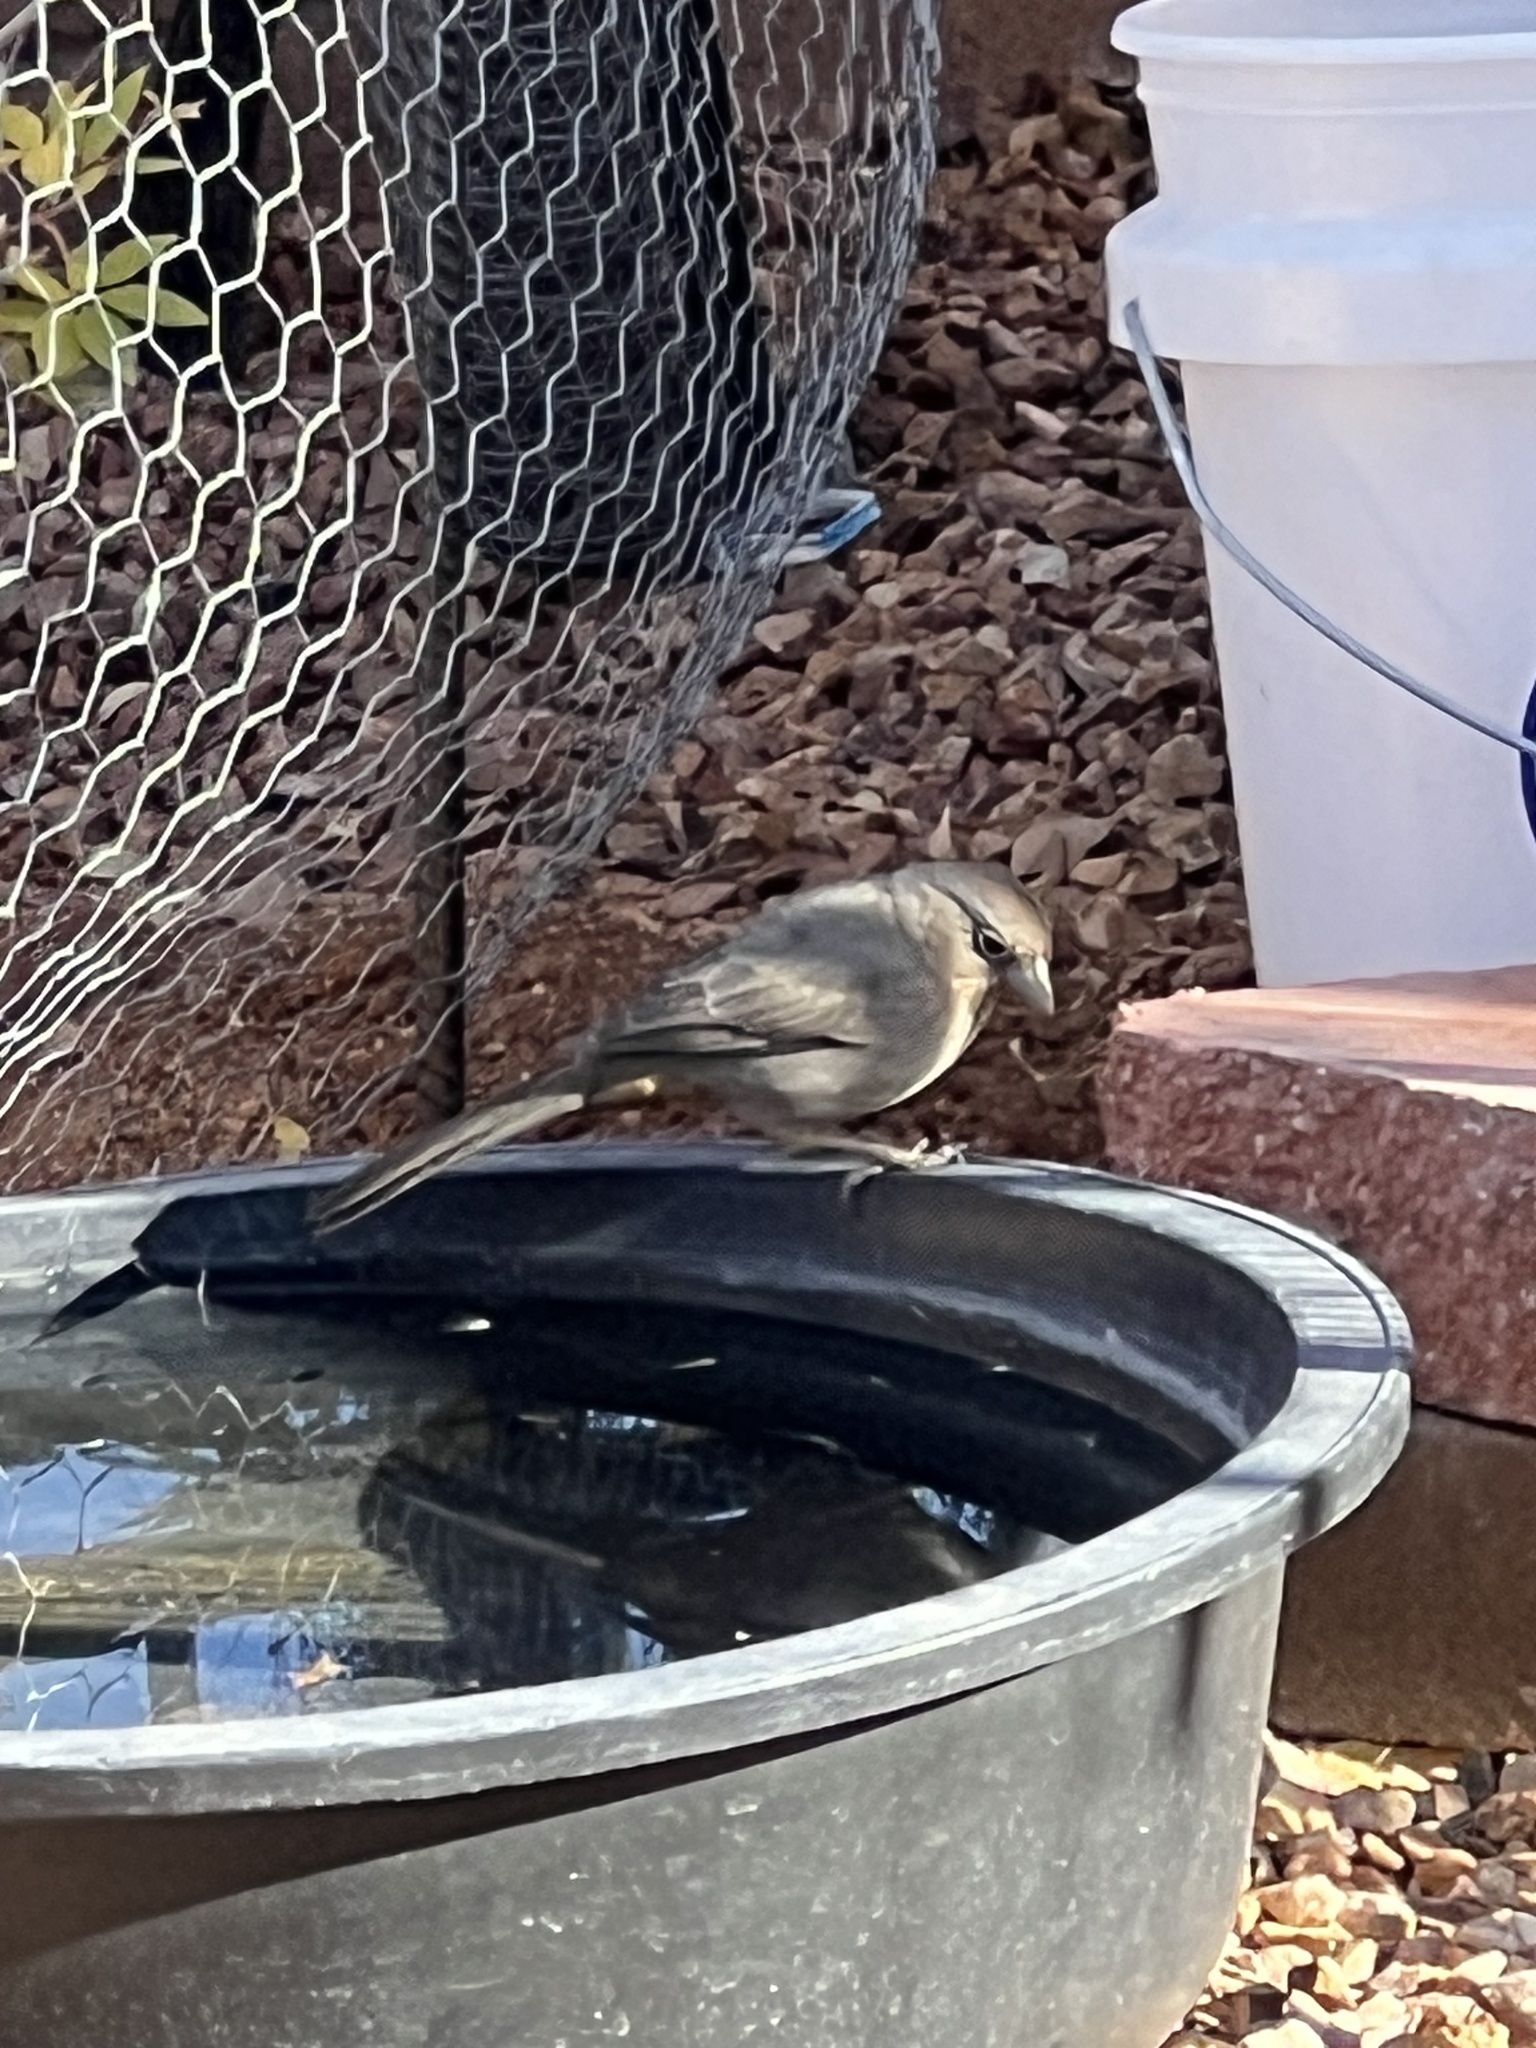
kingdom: Animalia
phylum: Chordata
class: Aves
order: Passeriformes
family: Passerellidae
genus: Melozone
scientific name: Melozone fusca
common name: Canyon towhee
